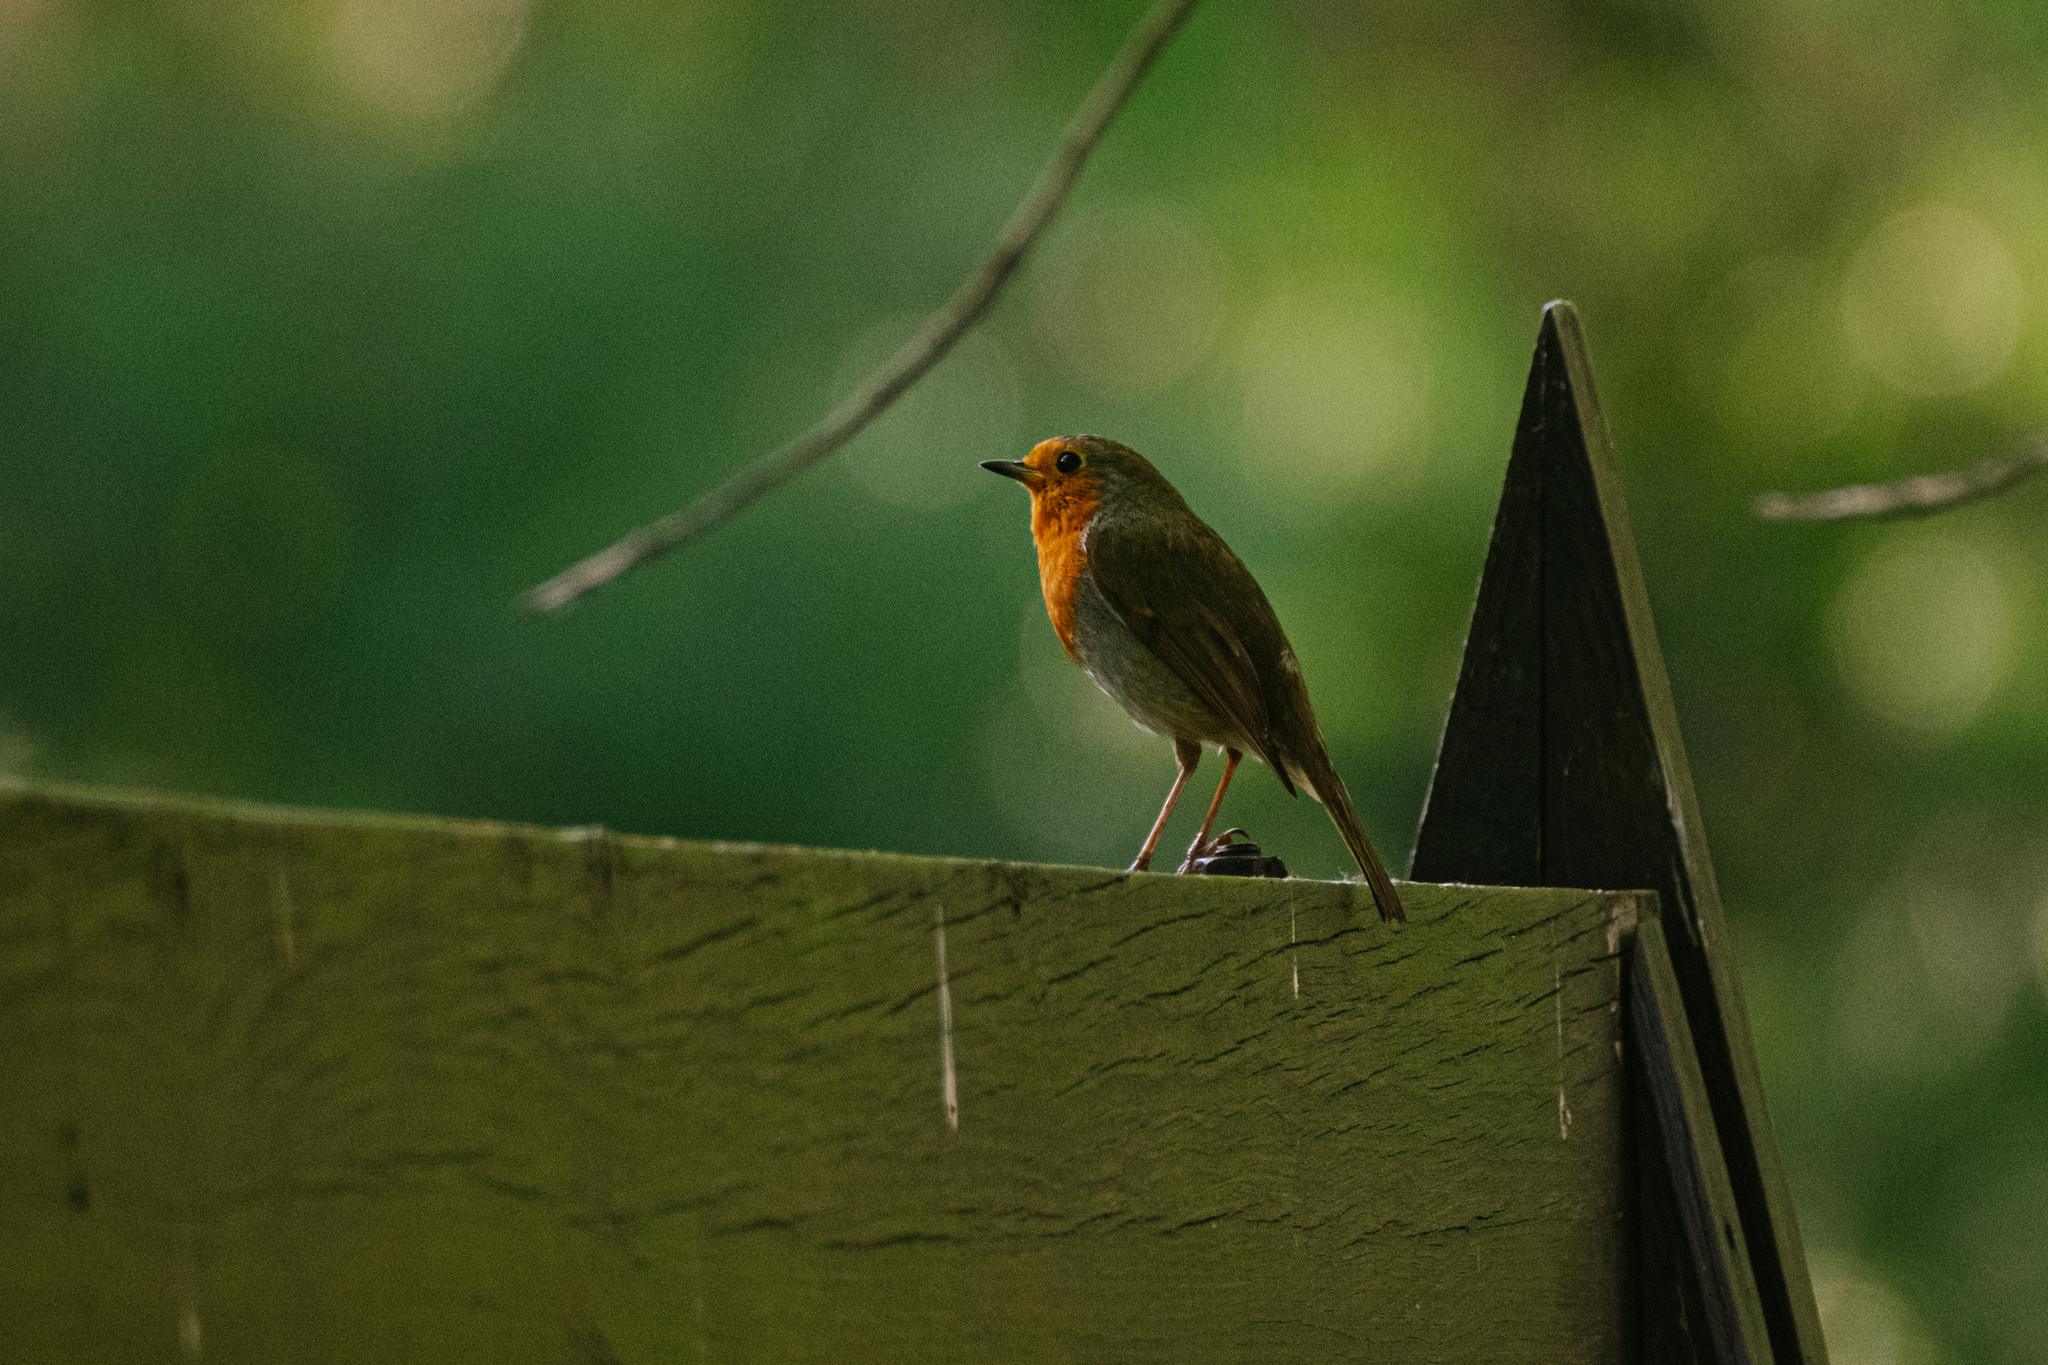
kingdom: Animalia
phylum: Chordata
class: Aves
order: Passeriformes
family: Muscicapidae
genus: Erithacus
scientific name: Erithacus rubecula
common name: European robin
